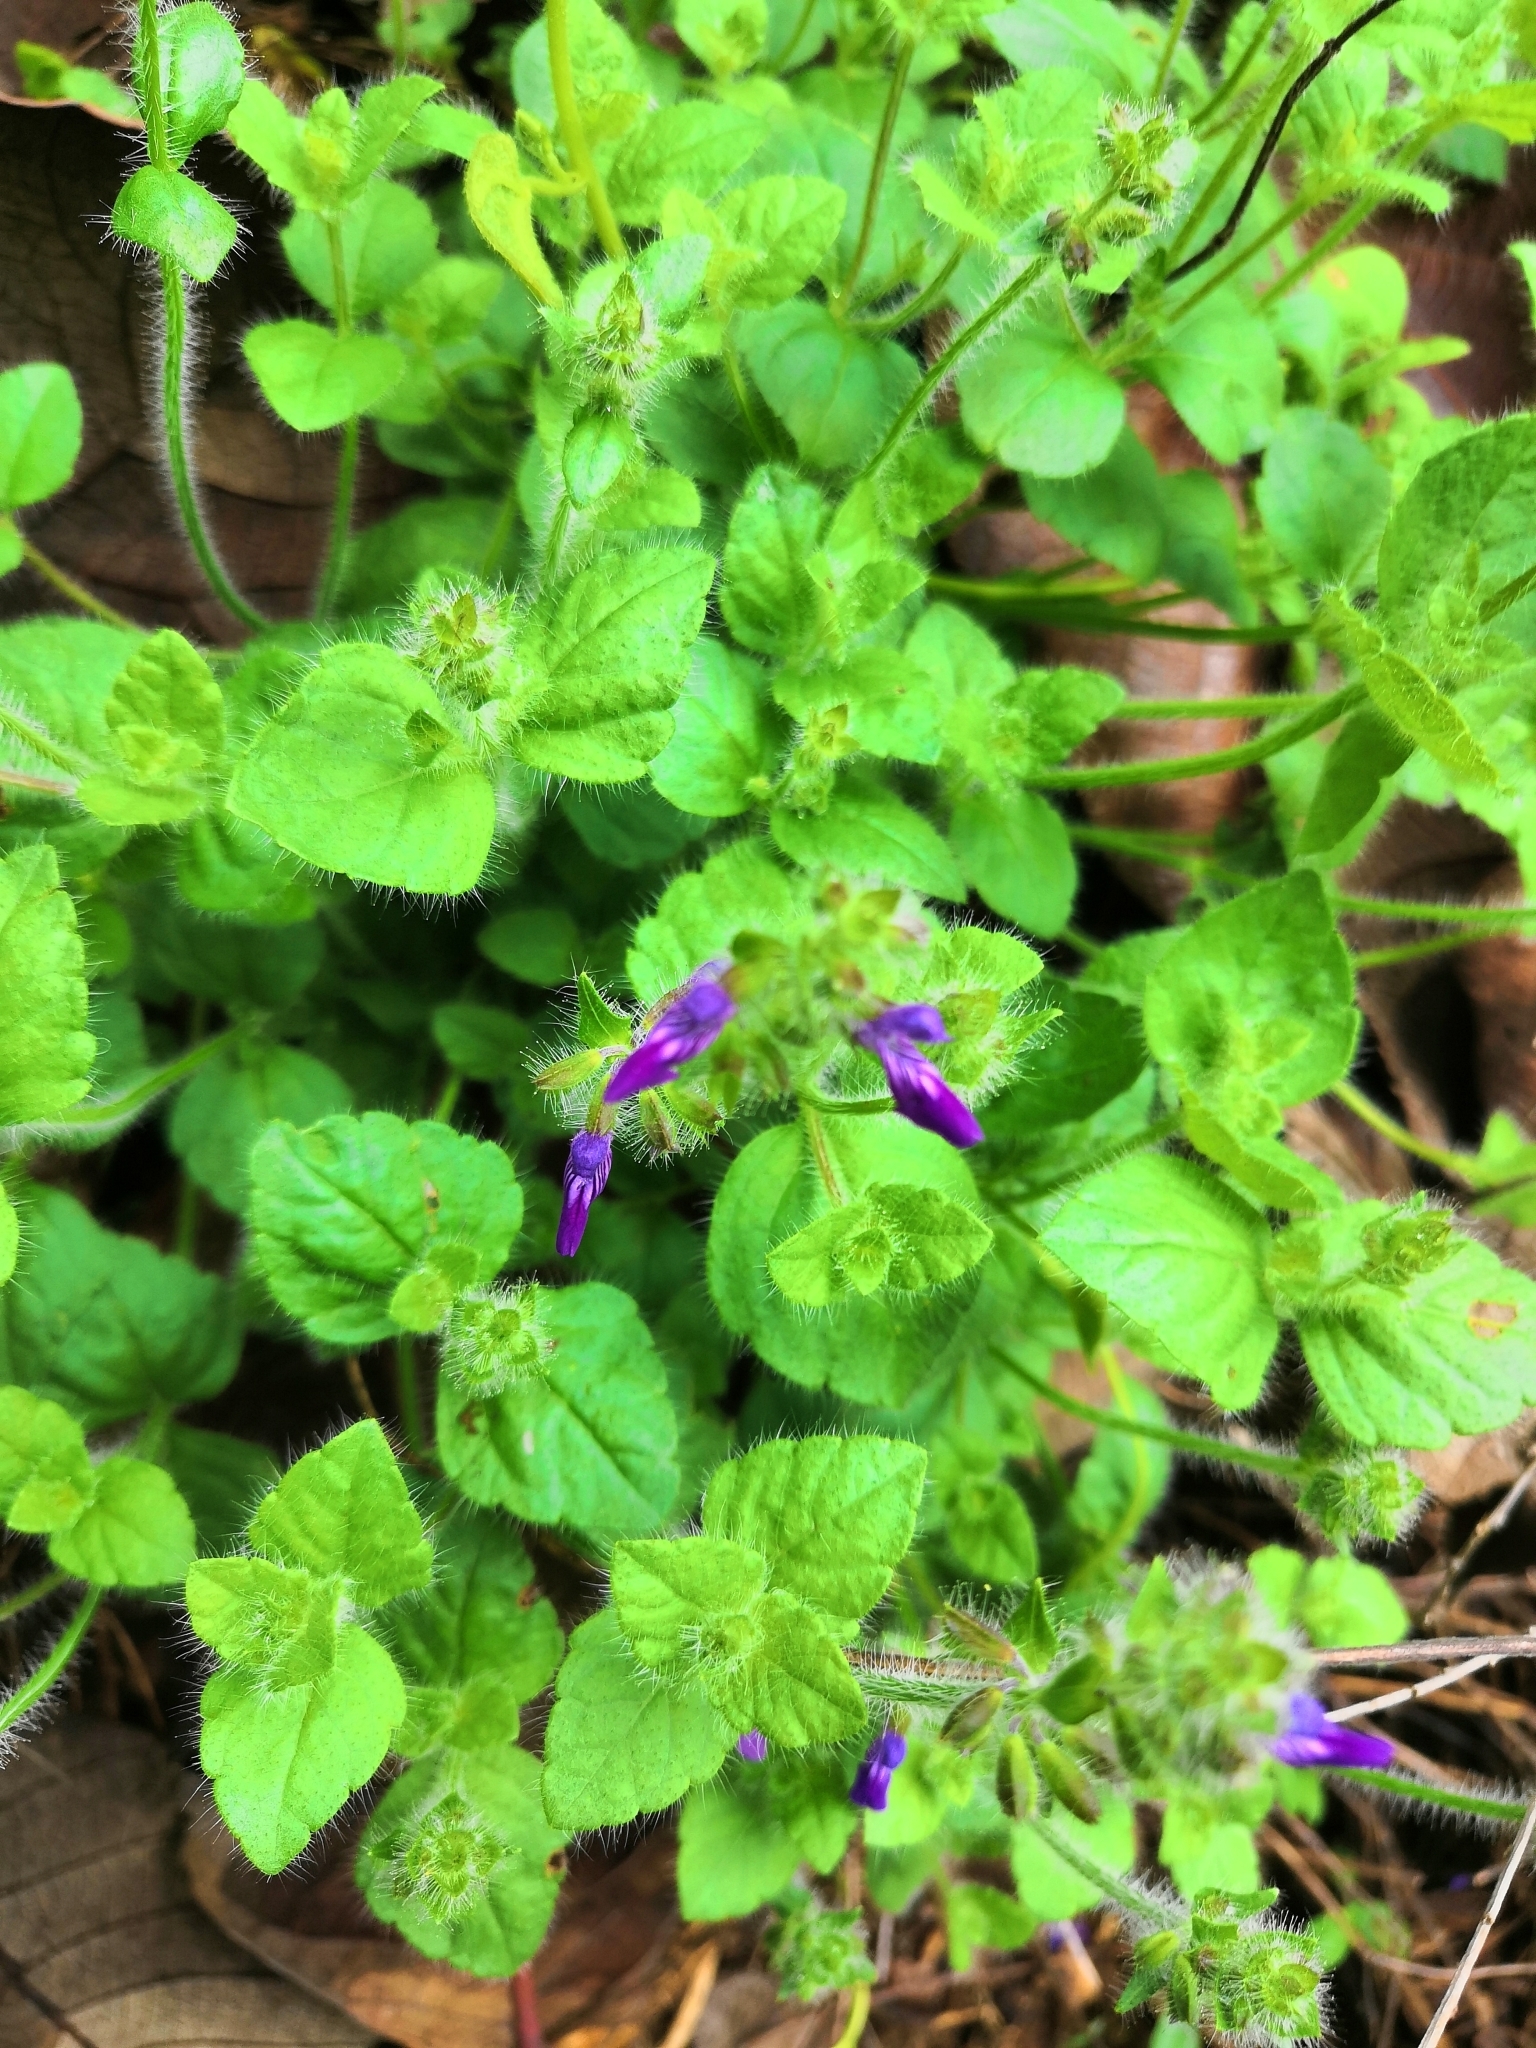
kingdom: Plantae
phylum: Tracheophyta
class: Magnoliopsida
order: Lamiales
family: Lamiaceae
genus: Salvia
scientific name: Salvia veronicifolia
